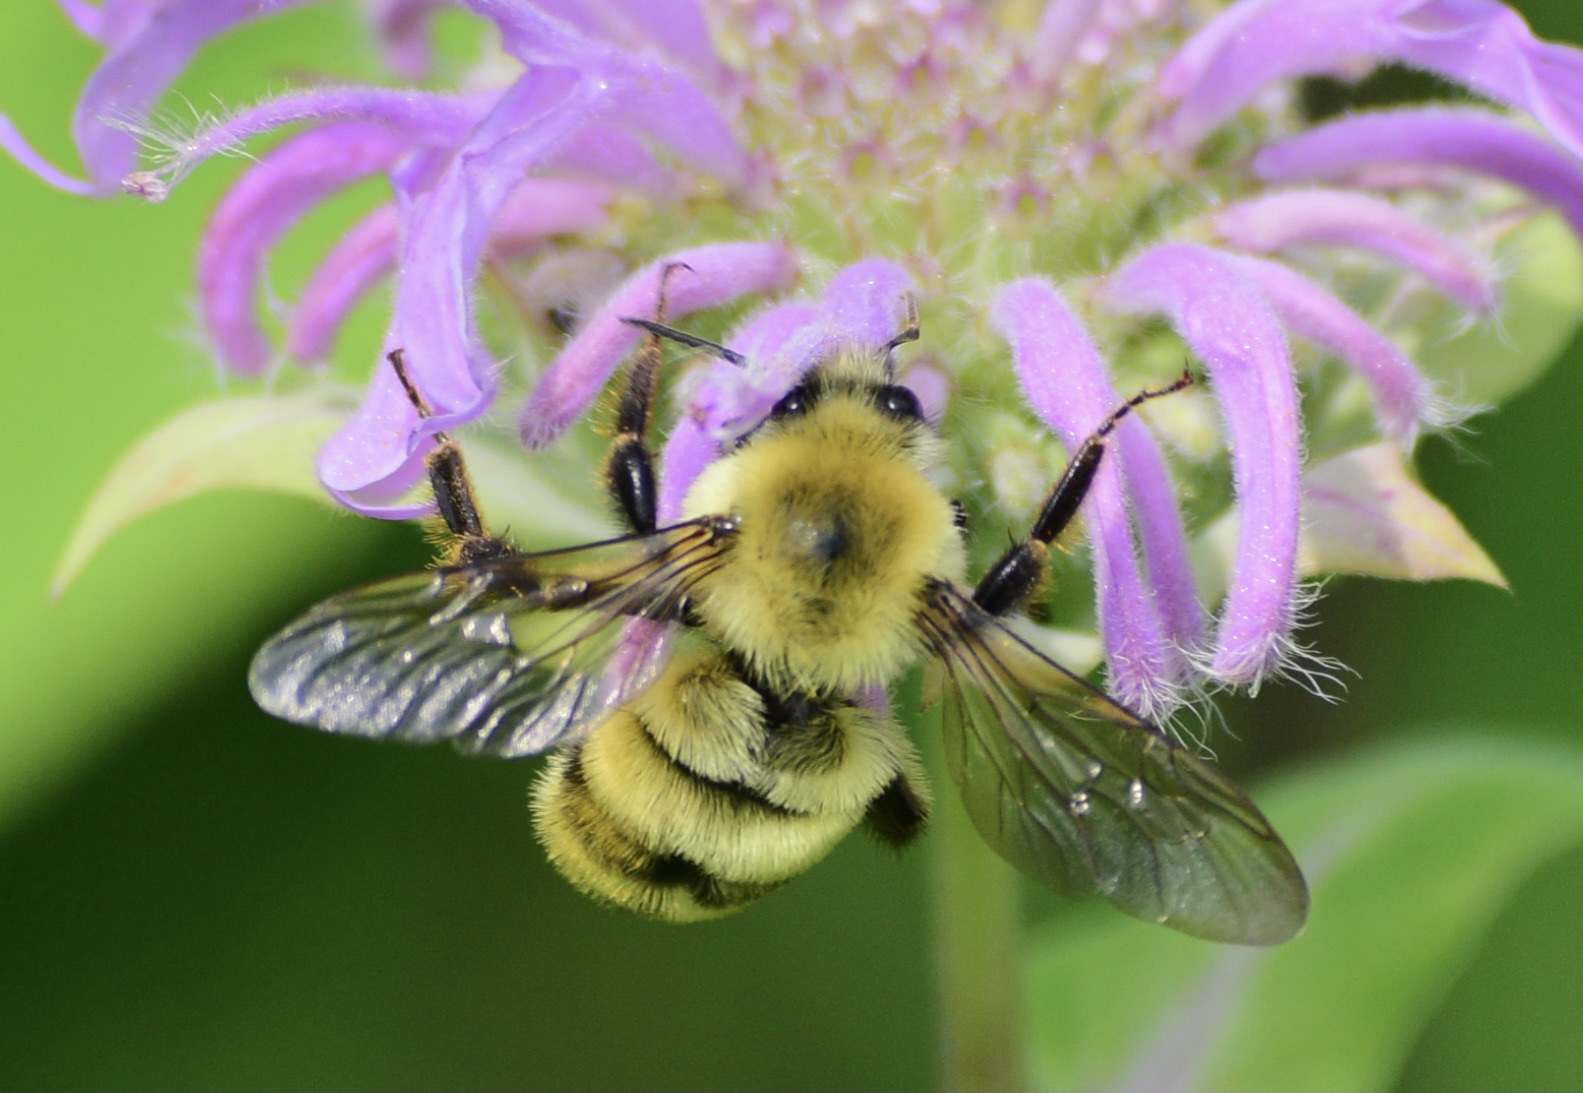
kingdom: Animalia
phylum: Arthropoda
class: Insecta
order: Hymenoptera
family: Apidae
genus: Bombus
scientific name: Bombus bimaculatus
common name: Two-spotted bumble bee
